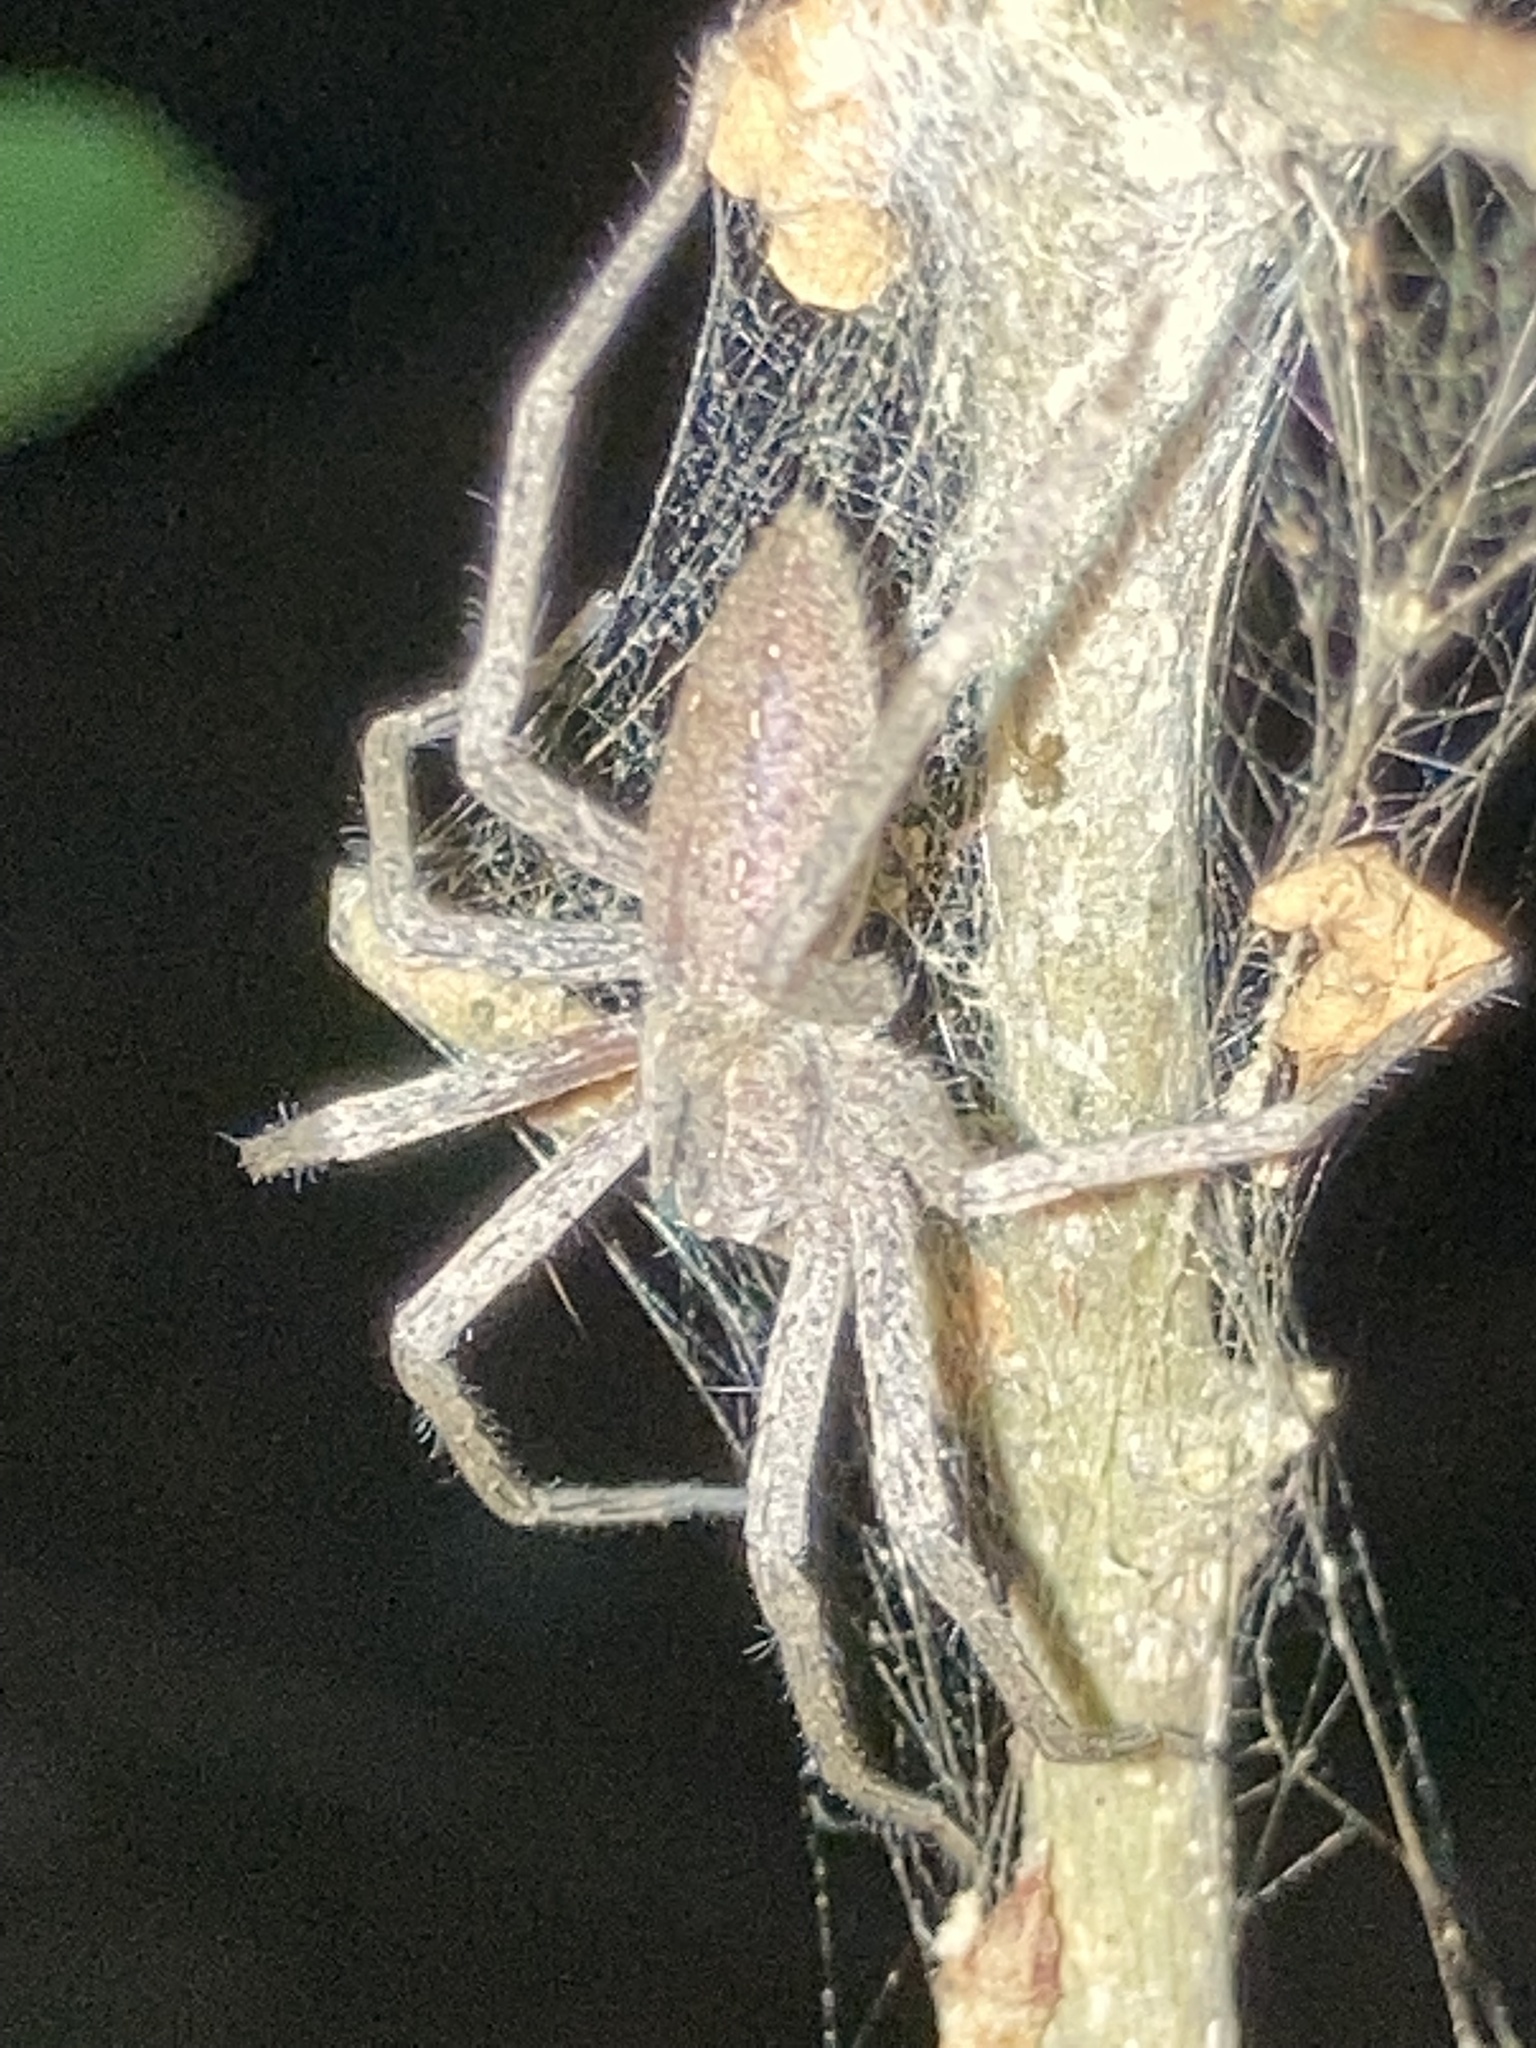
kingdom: Animalia
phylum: Arthropoda
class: Arachnida
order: Araneae
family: Pisauridae
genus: Pisaurina
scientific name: Pisaurina mira
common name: American nursery web spider
